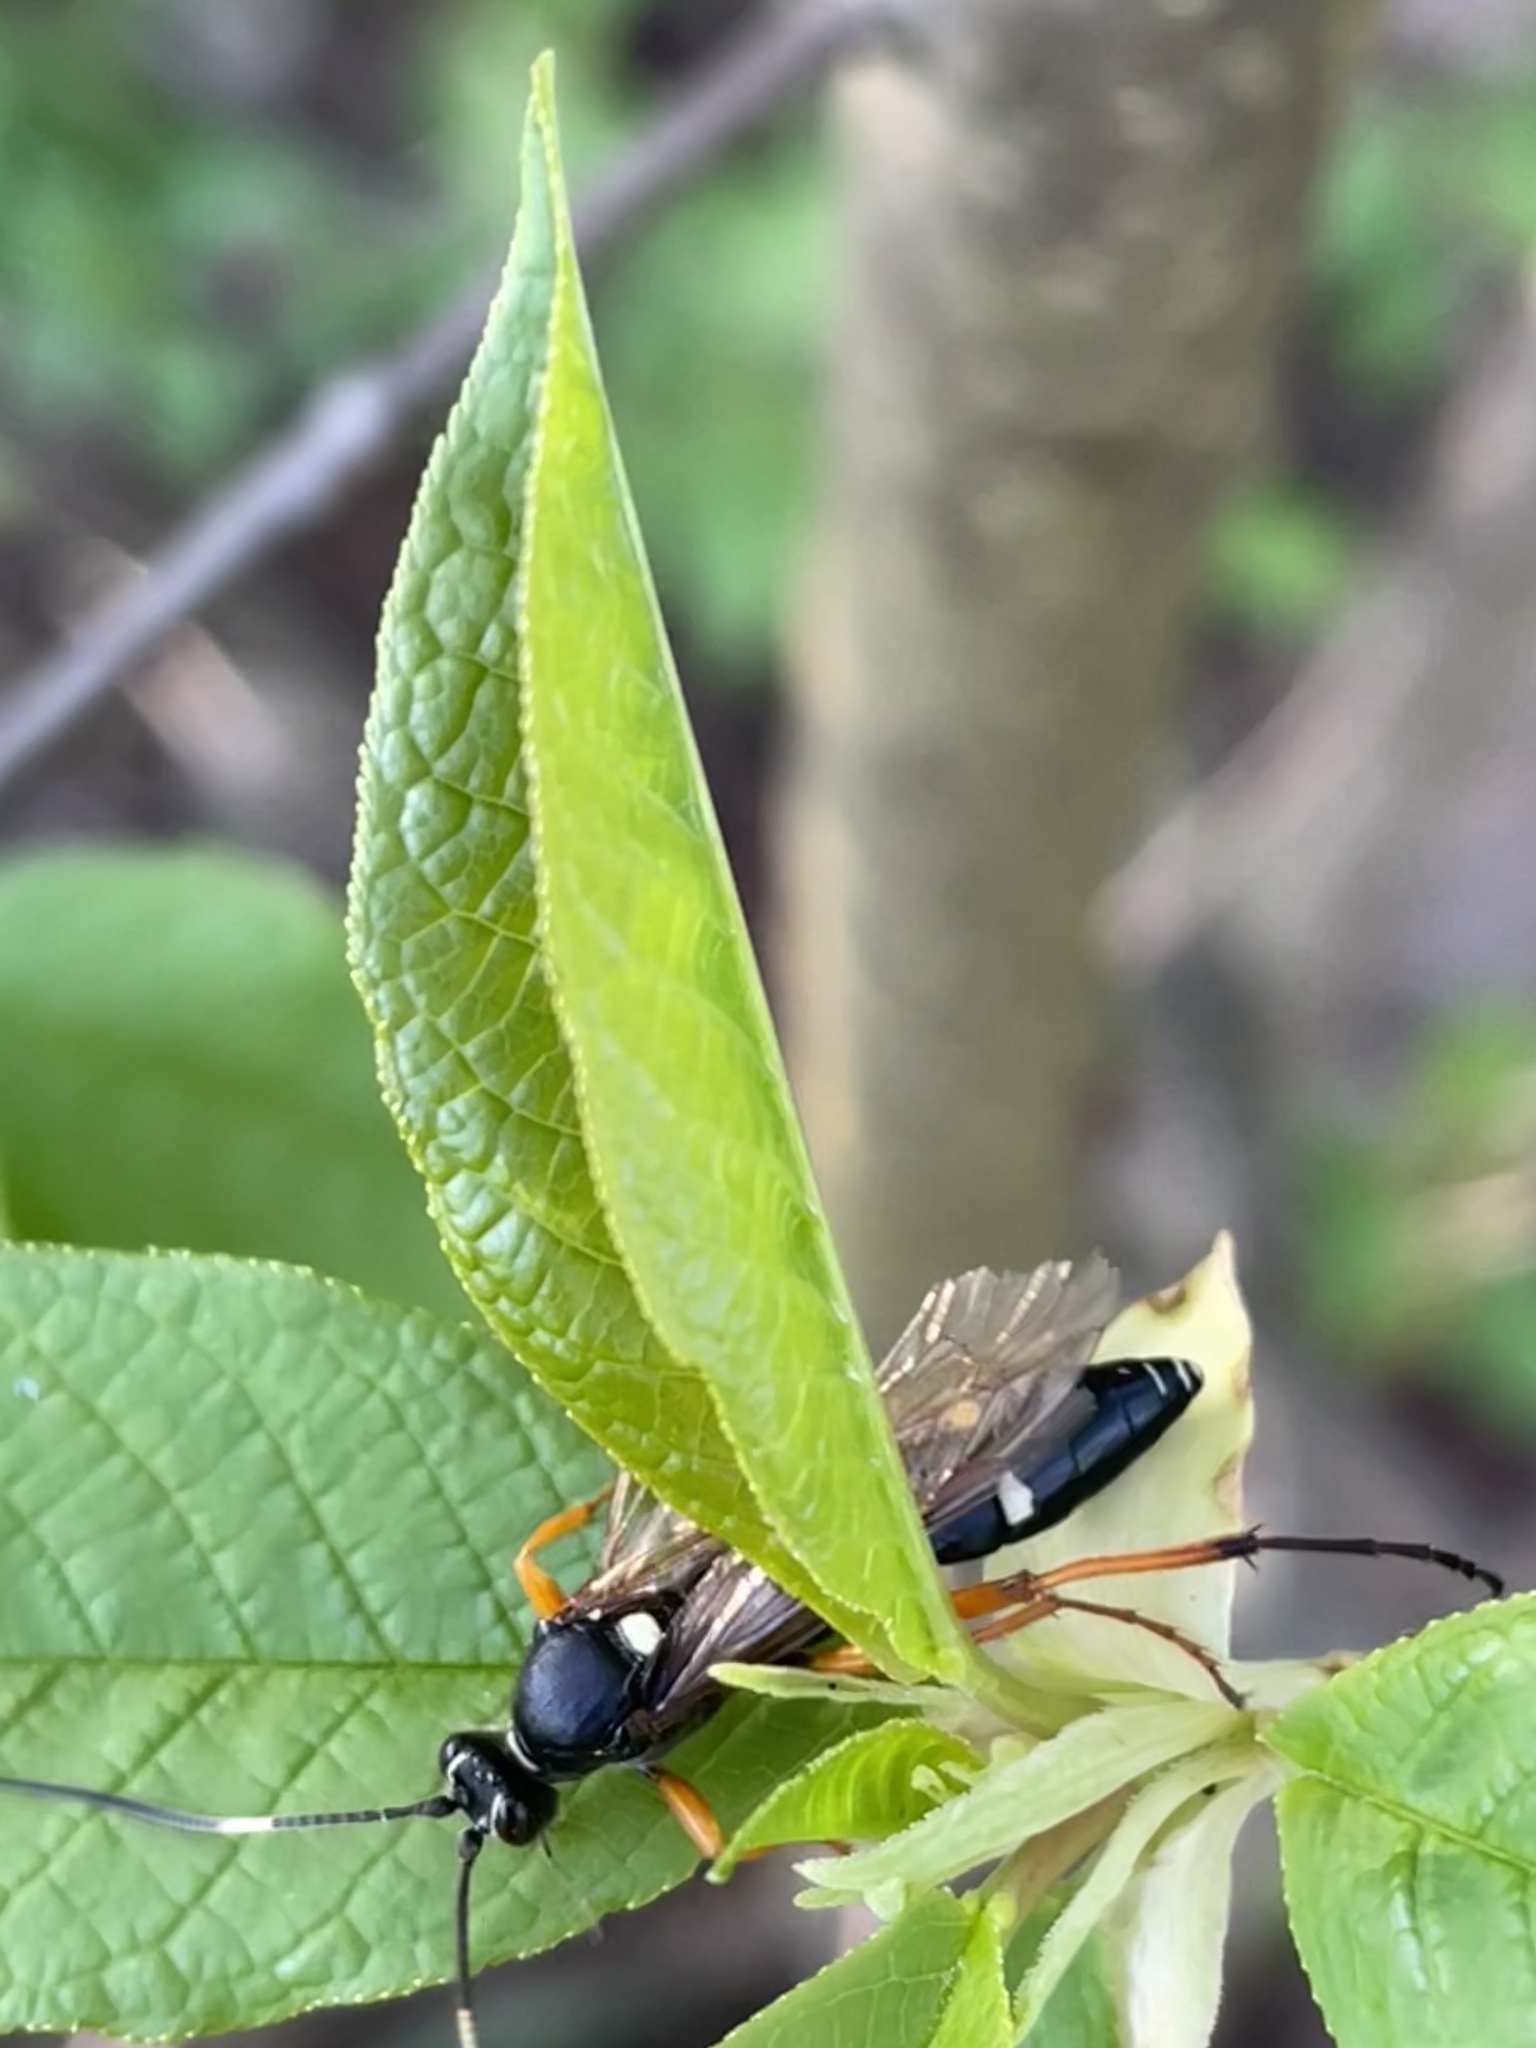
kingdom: Animalia
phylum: Arthropoda
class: Insecta
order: Hymenoptera
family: Ichneumonidae
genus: Diphyus
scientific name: Diphyus quadripunctorius
